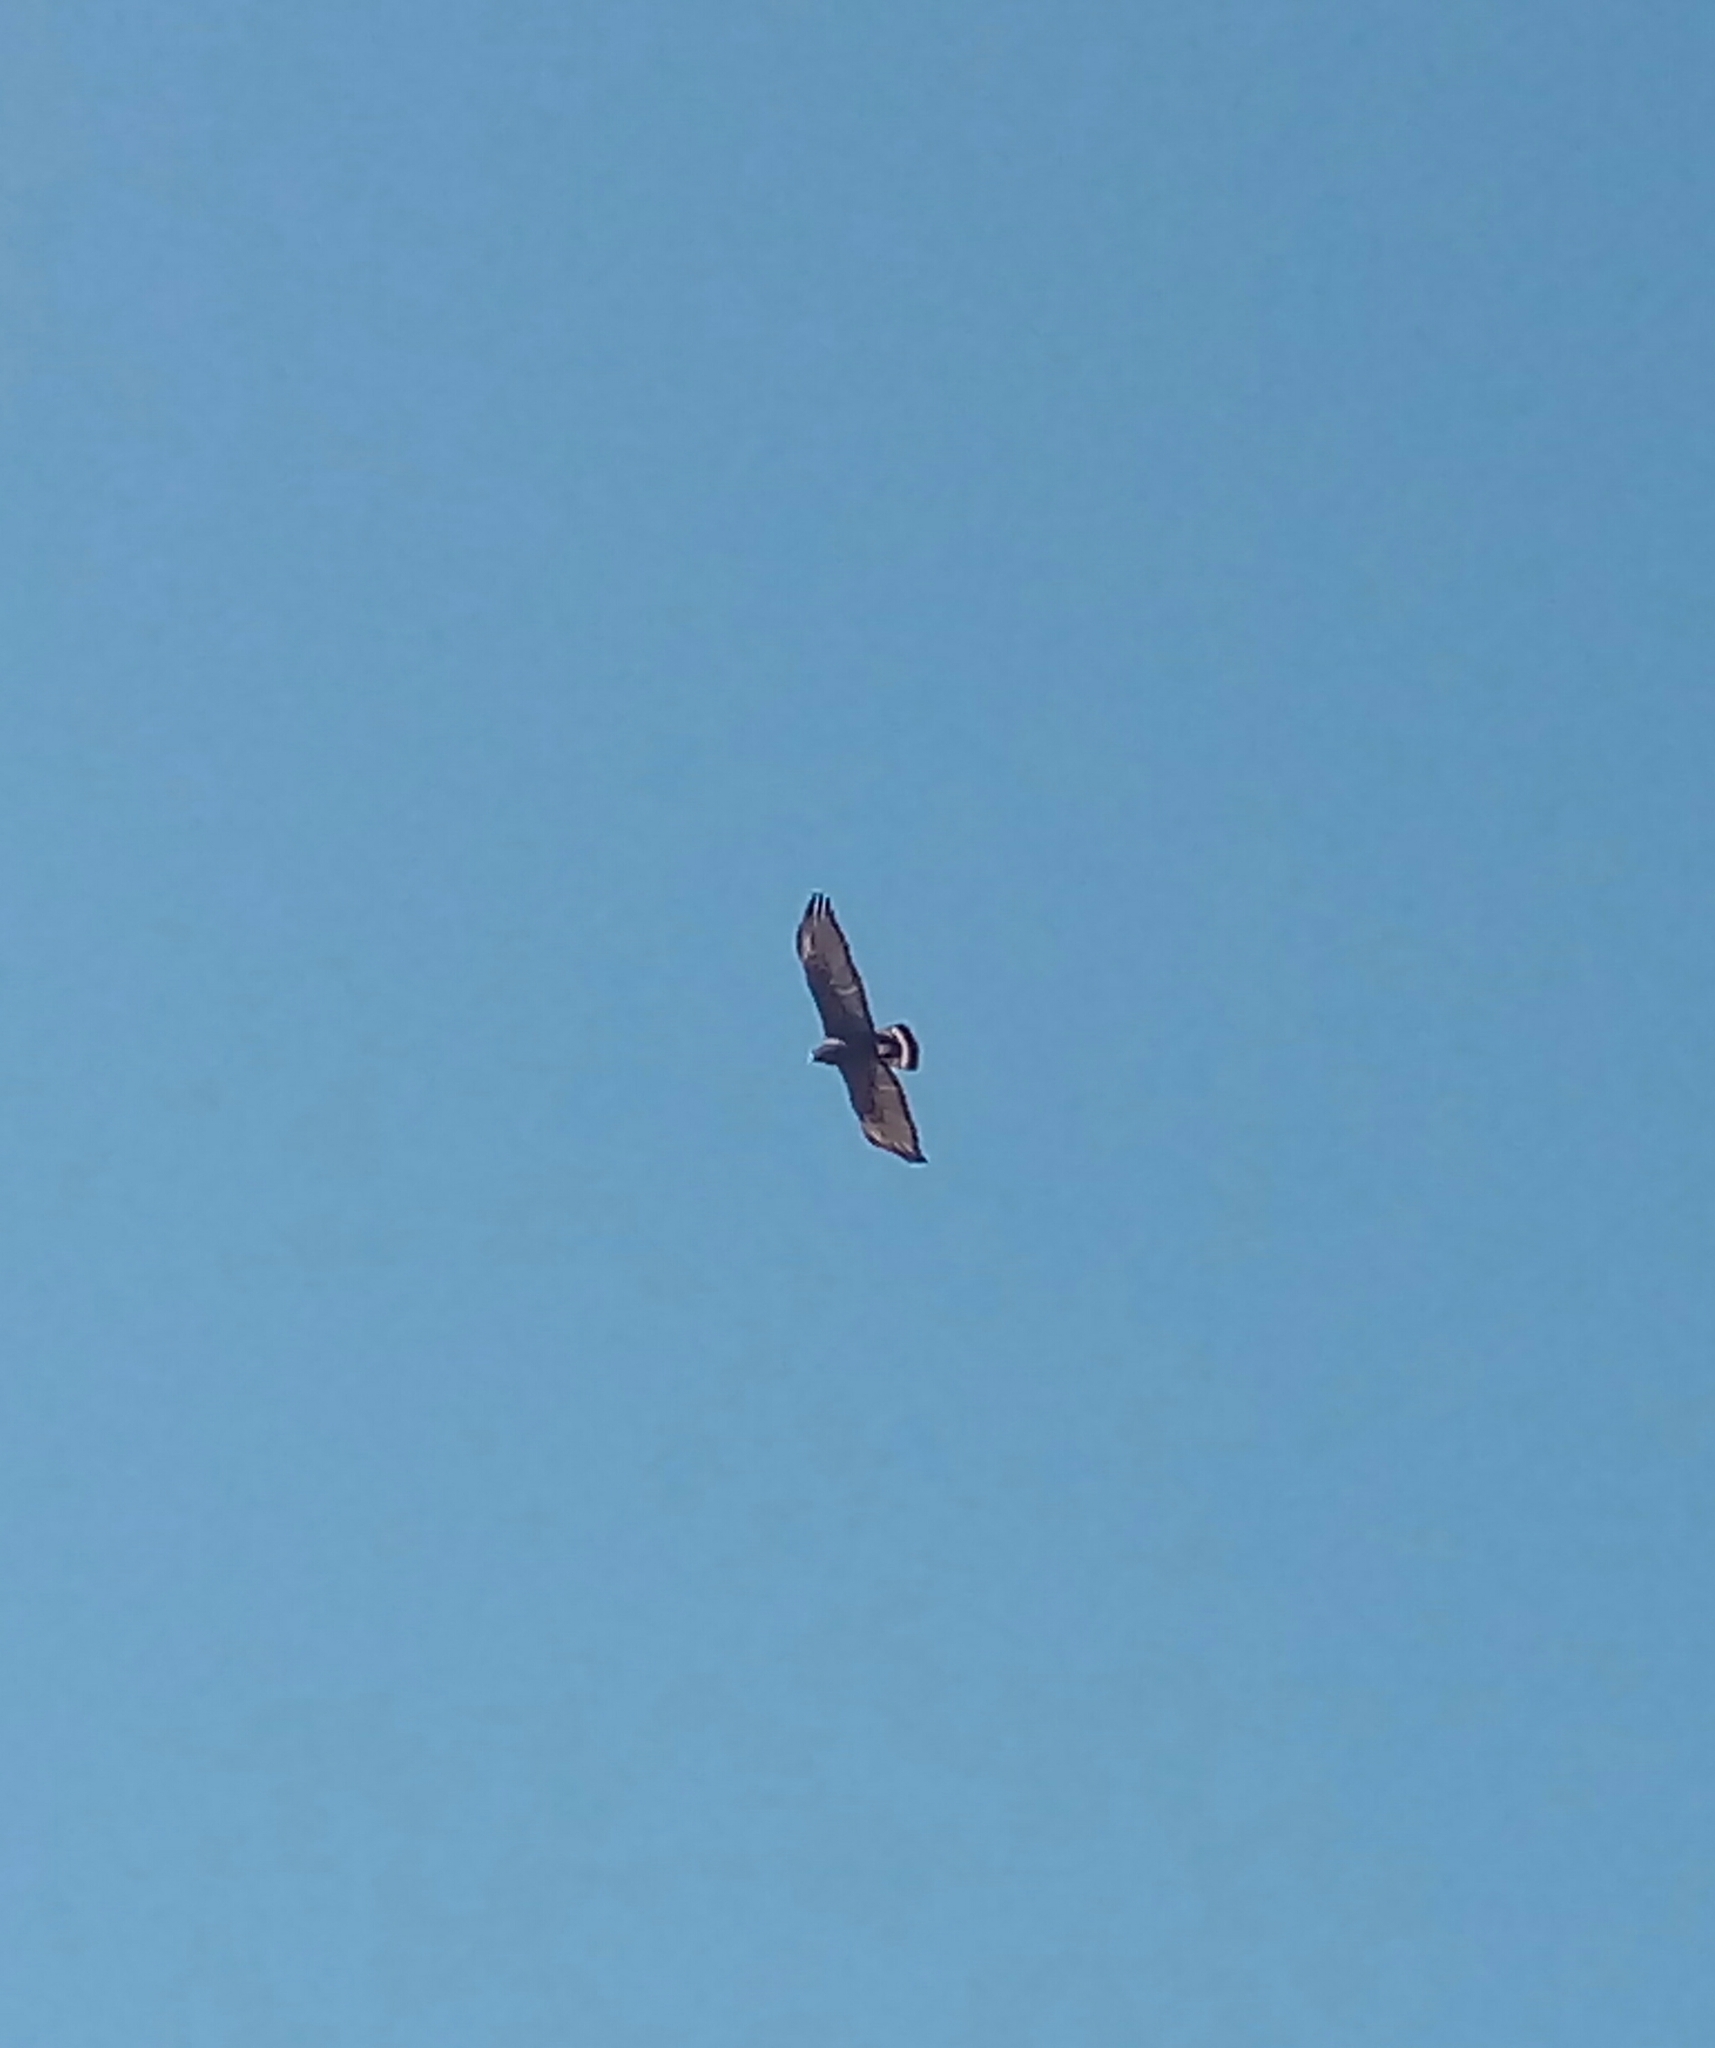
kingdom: Animalia
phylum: Chordata
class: Aves
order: Accipitriformes
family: Accipitridae
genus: Buteo
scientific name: Buteo albonotatus
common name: Zone-tailed hawk
